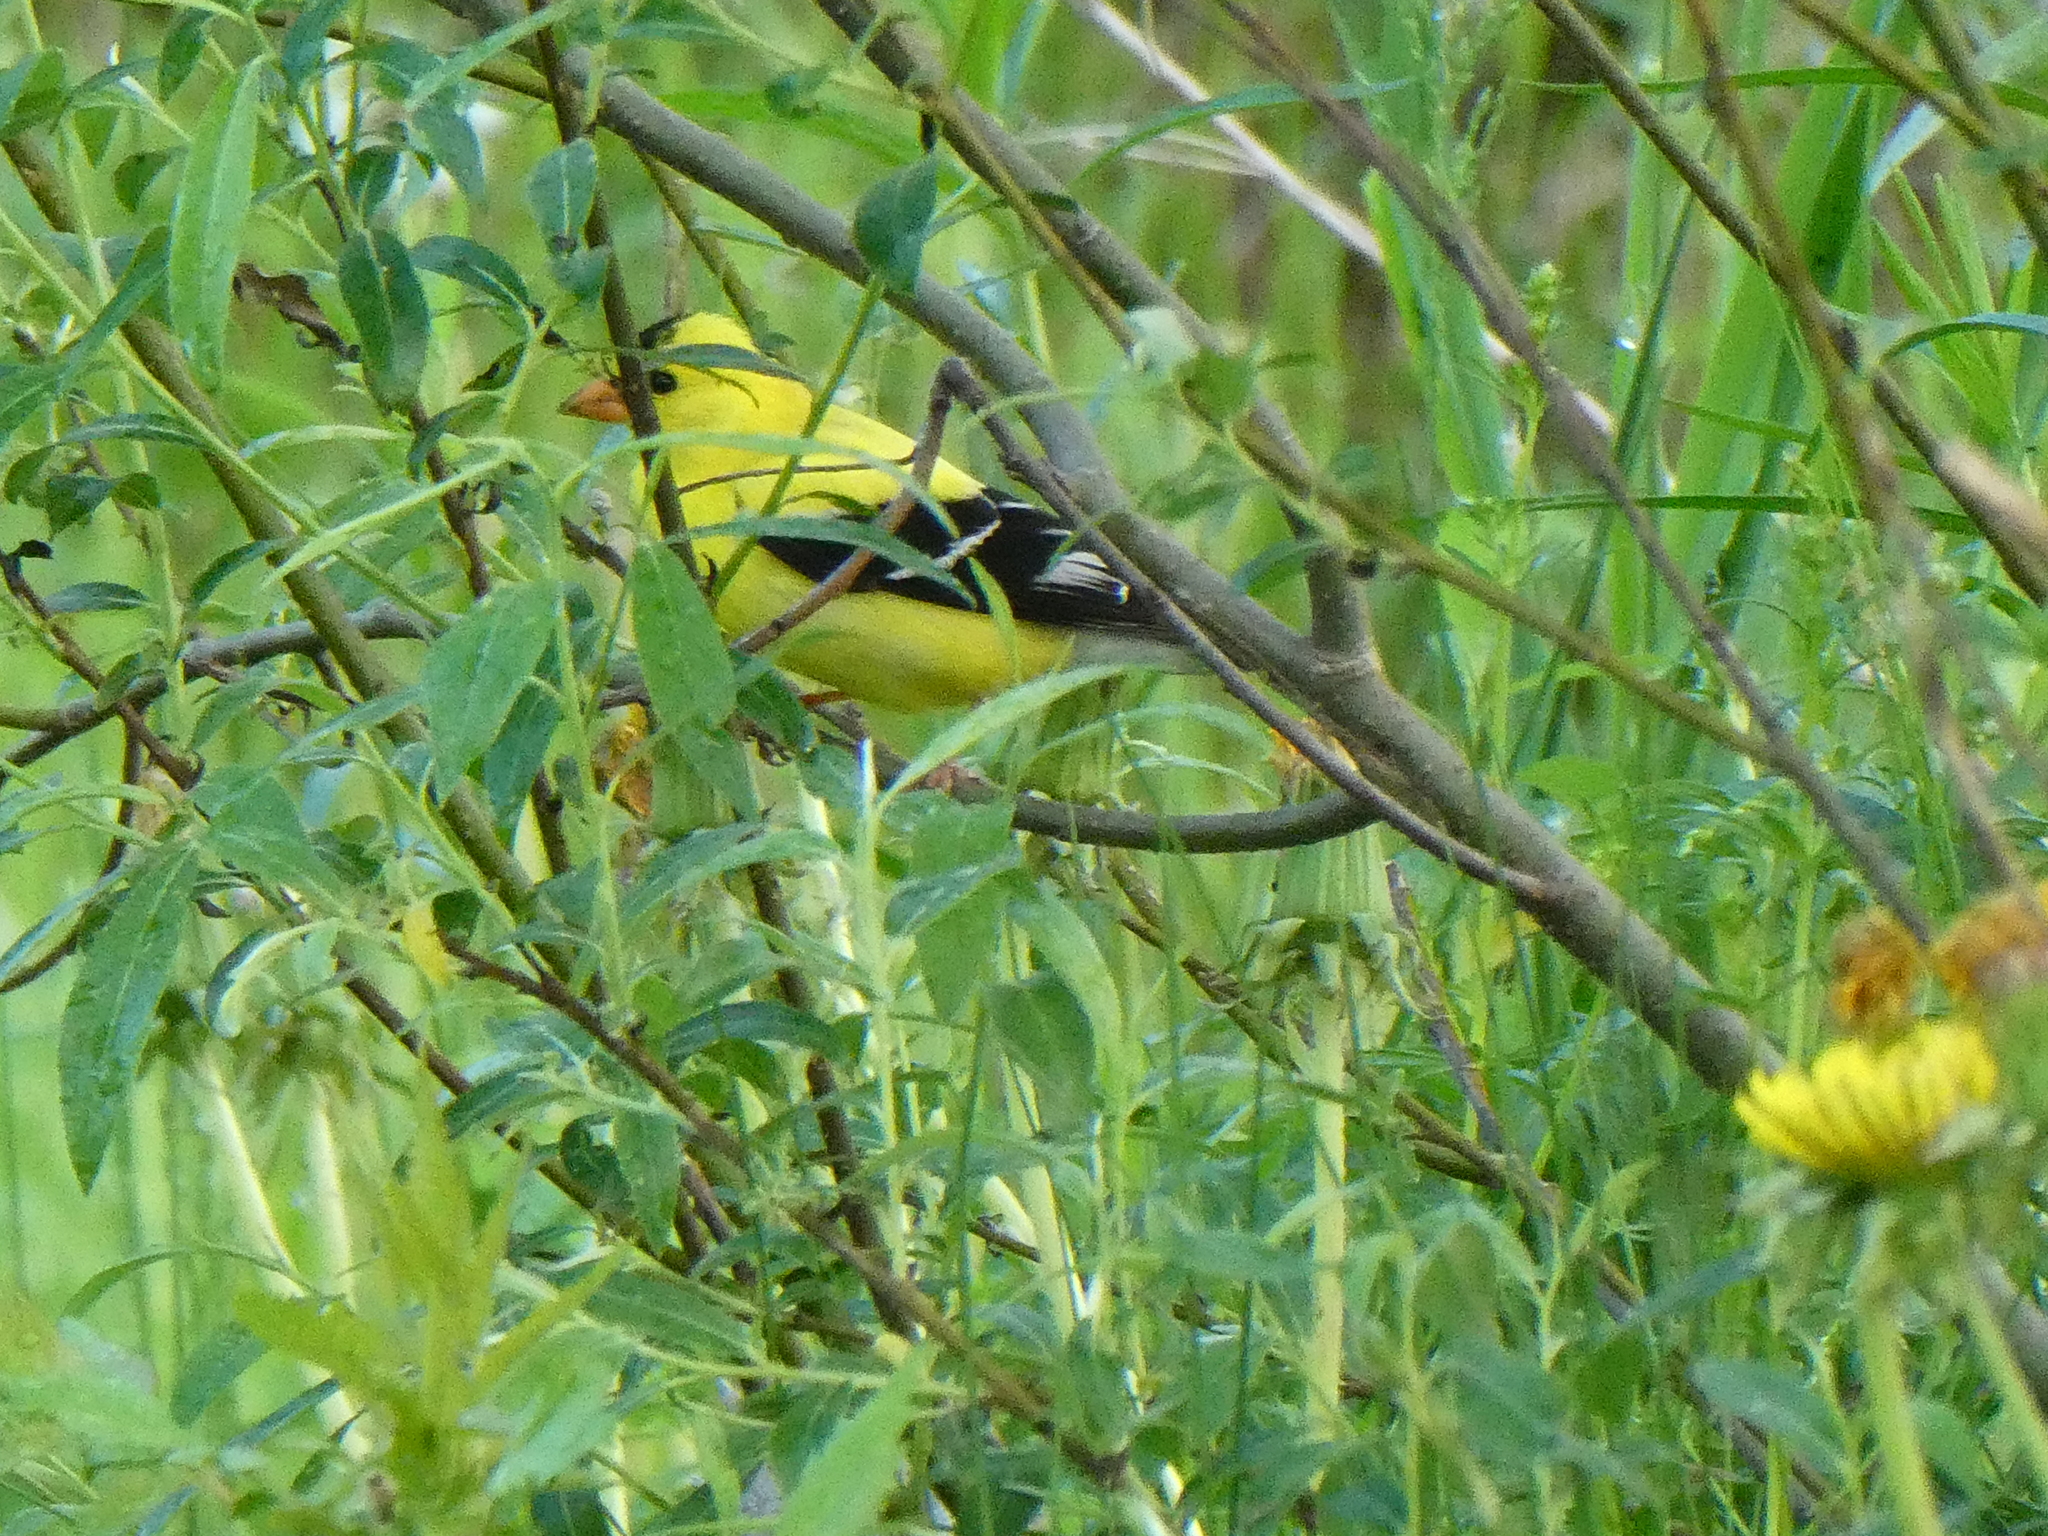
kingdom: Animalia
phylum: Chordata
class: Aves
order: Passeriformes
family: Fringillidae
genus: Spinus
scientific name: Spinus tristis
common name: American goldfinch
